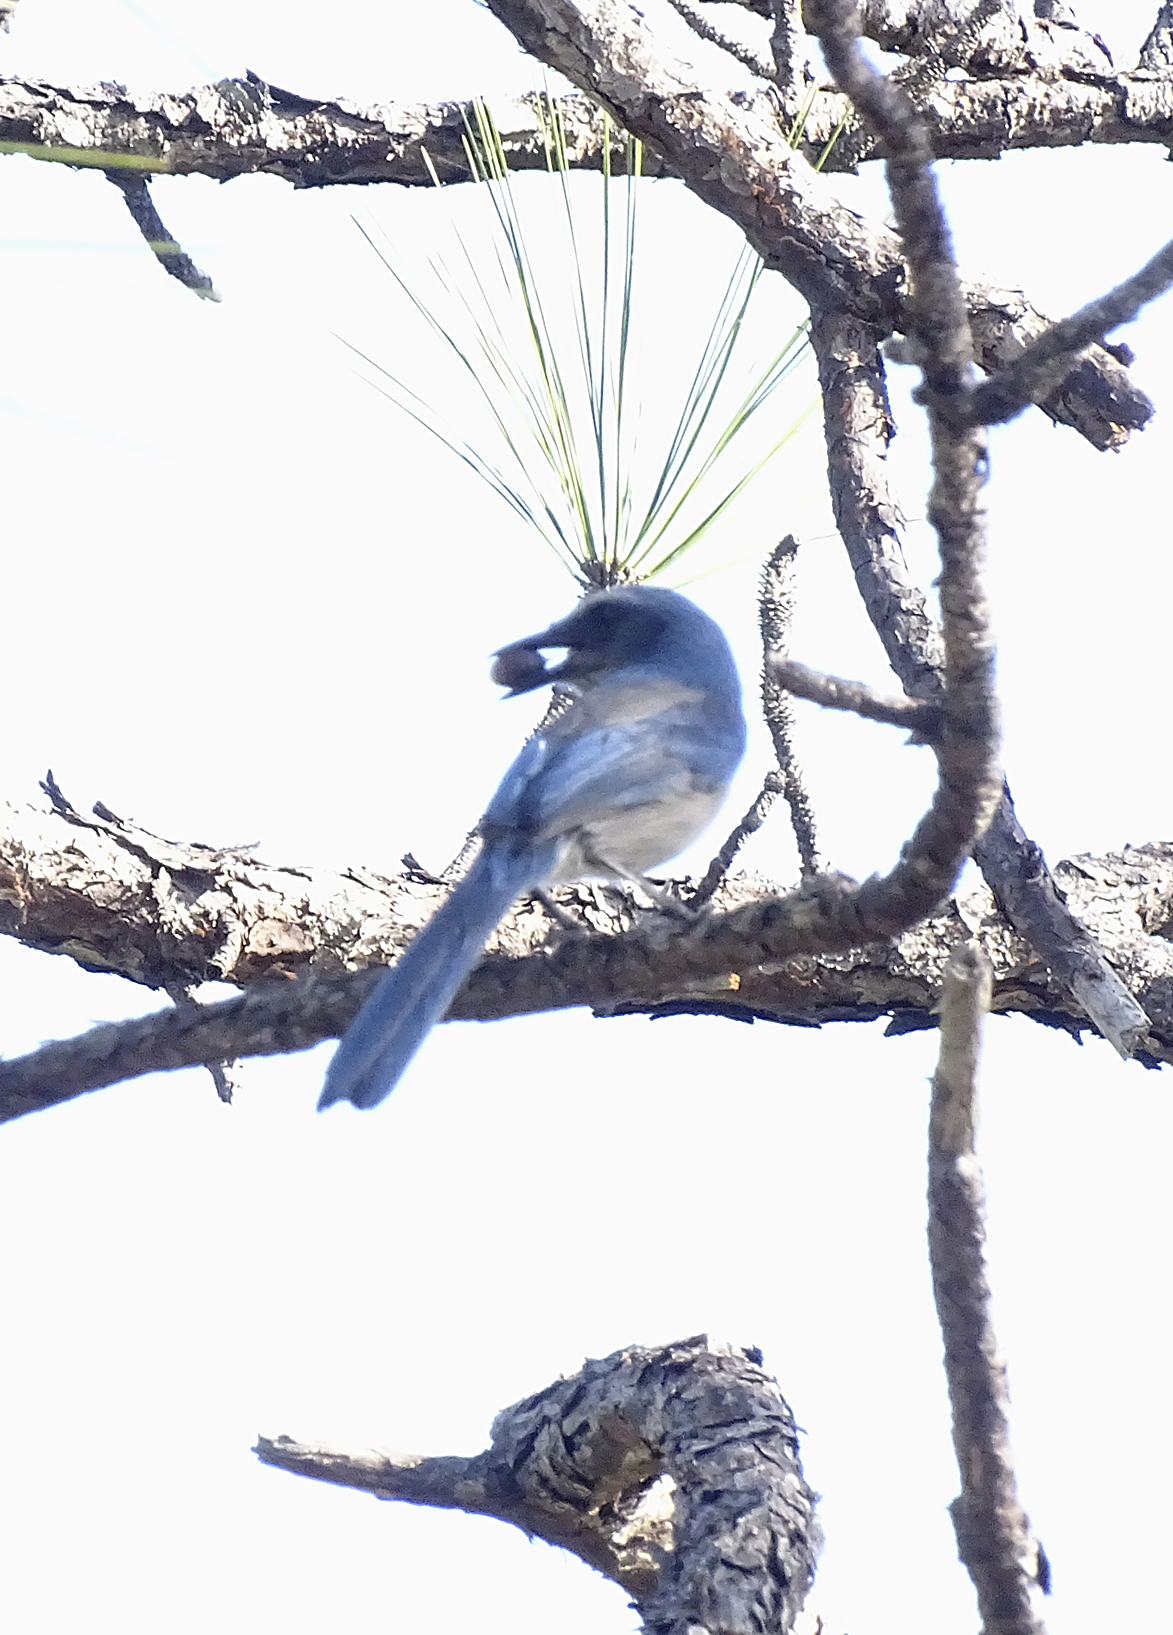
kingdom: Animalia
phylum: Chordata
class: Aves
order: Passeriformes
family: Corvidae
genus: Aphelocoma
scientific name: Aphelocoma coerulescens
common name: Florida scrub jay
